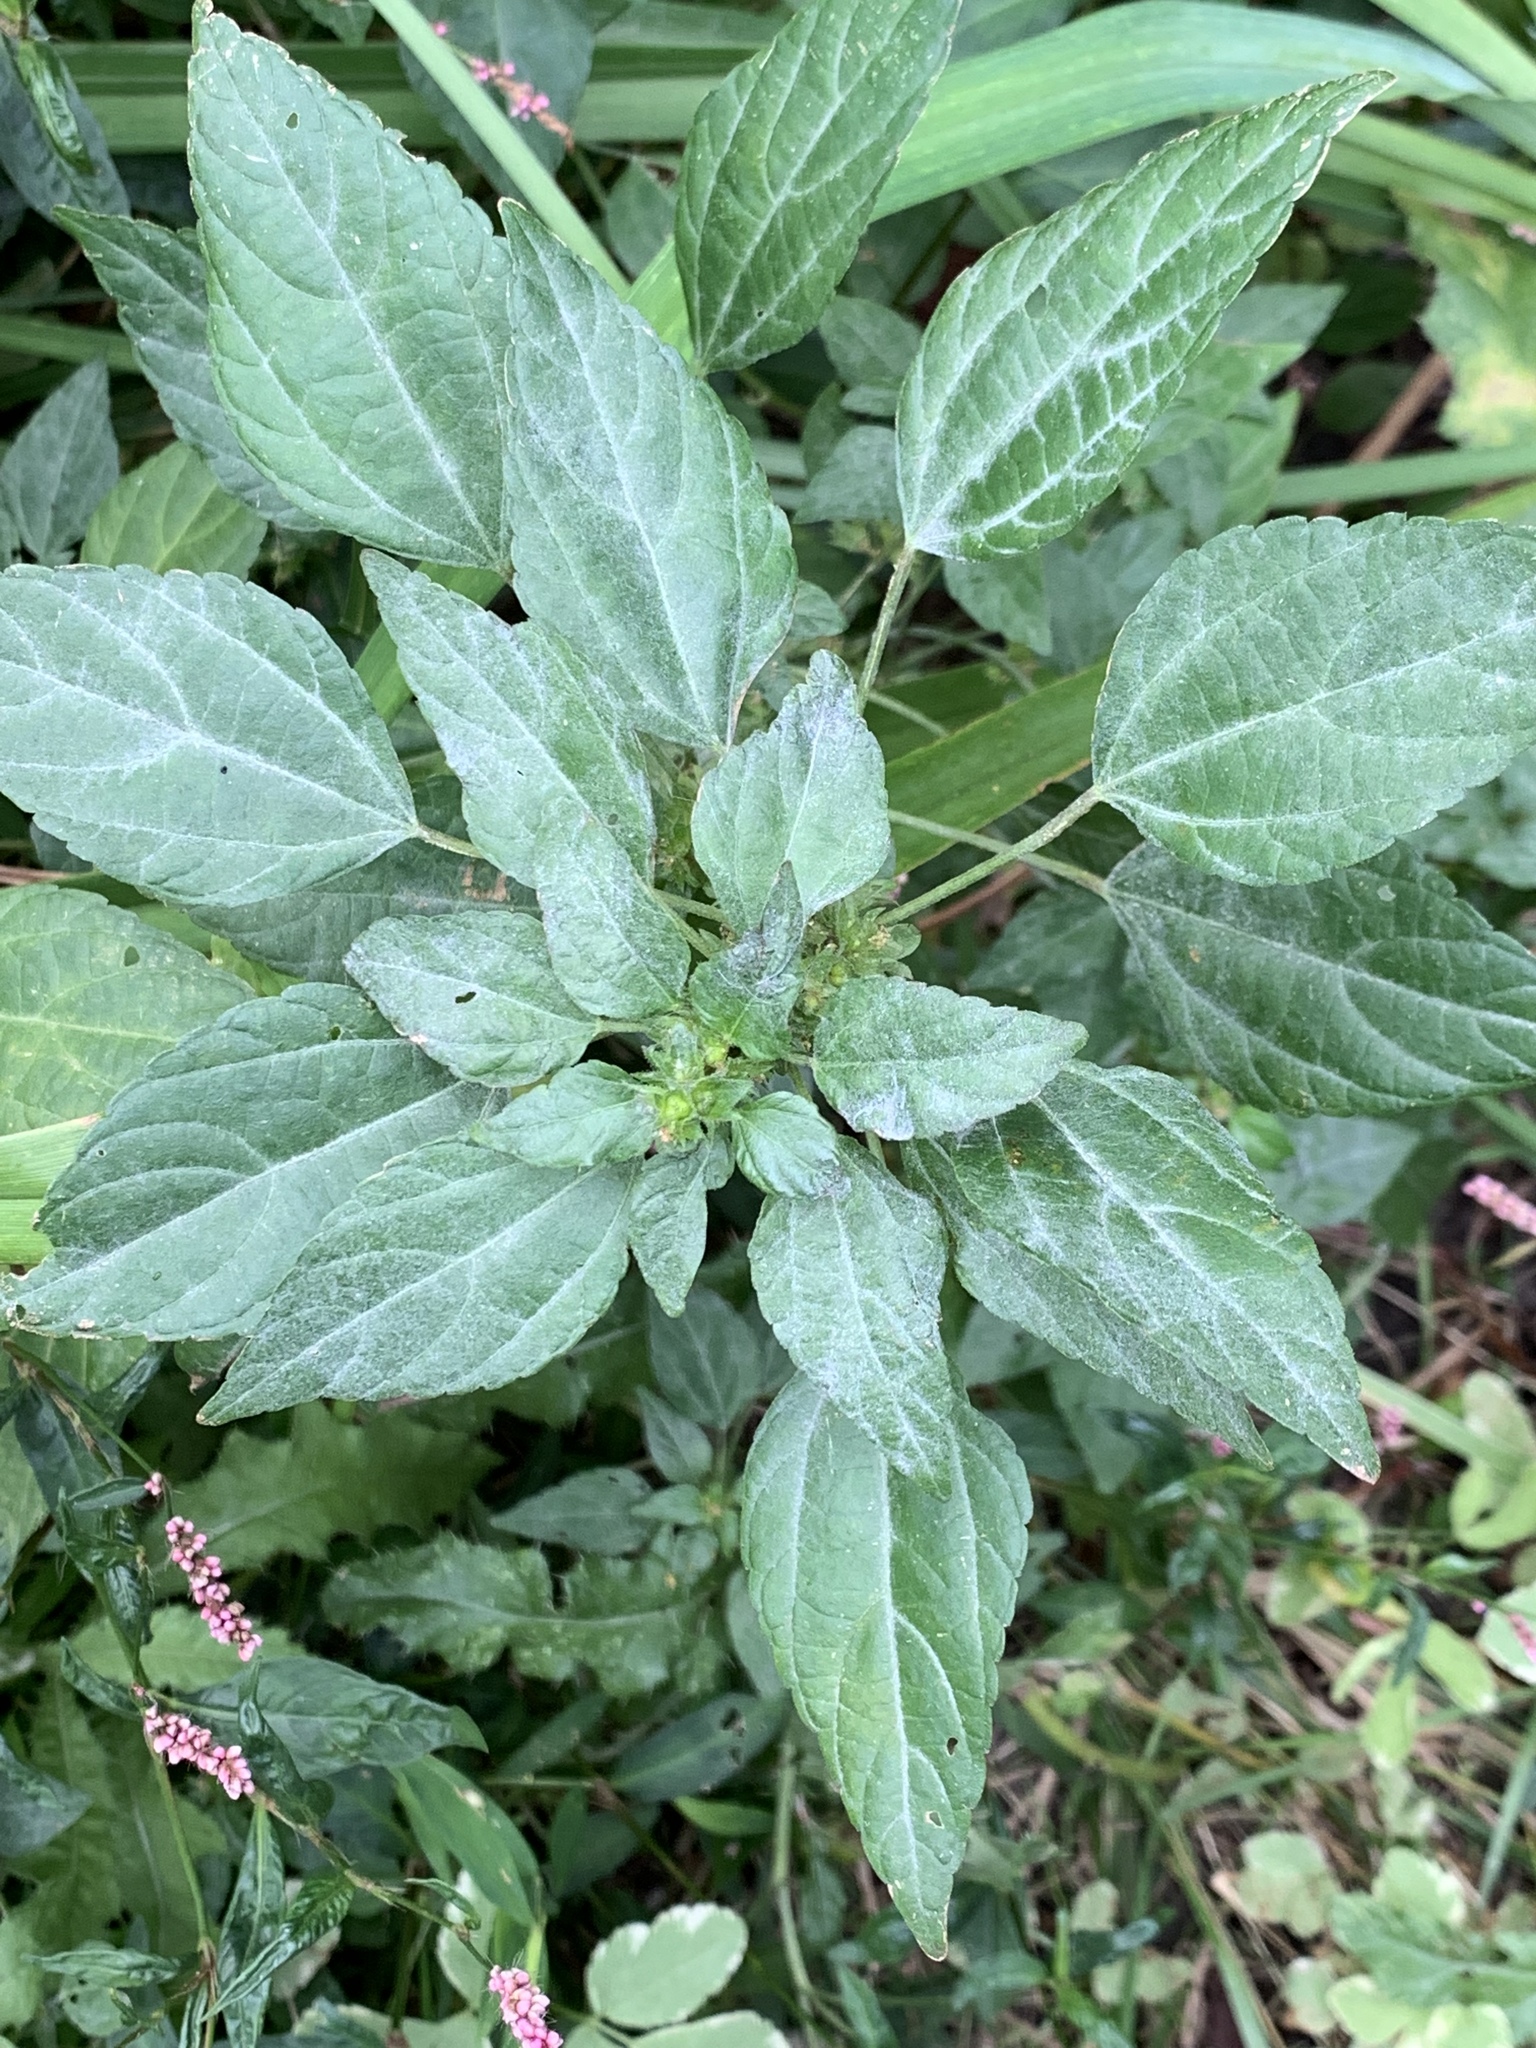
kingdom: Plantae
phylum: Tracheophyta
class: Magnoliopsida
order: Malpighiales
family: Euphorbiaceae
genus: Acalypha
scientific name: Acalypha rhomboidea
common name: Rhombic copperleaf
